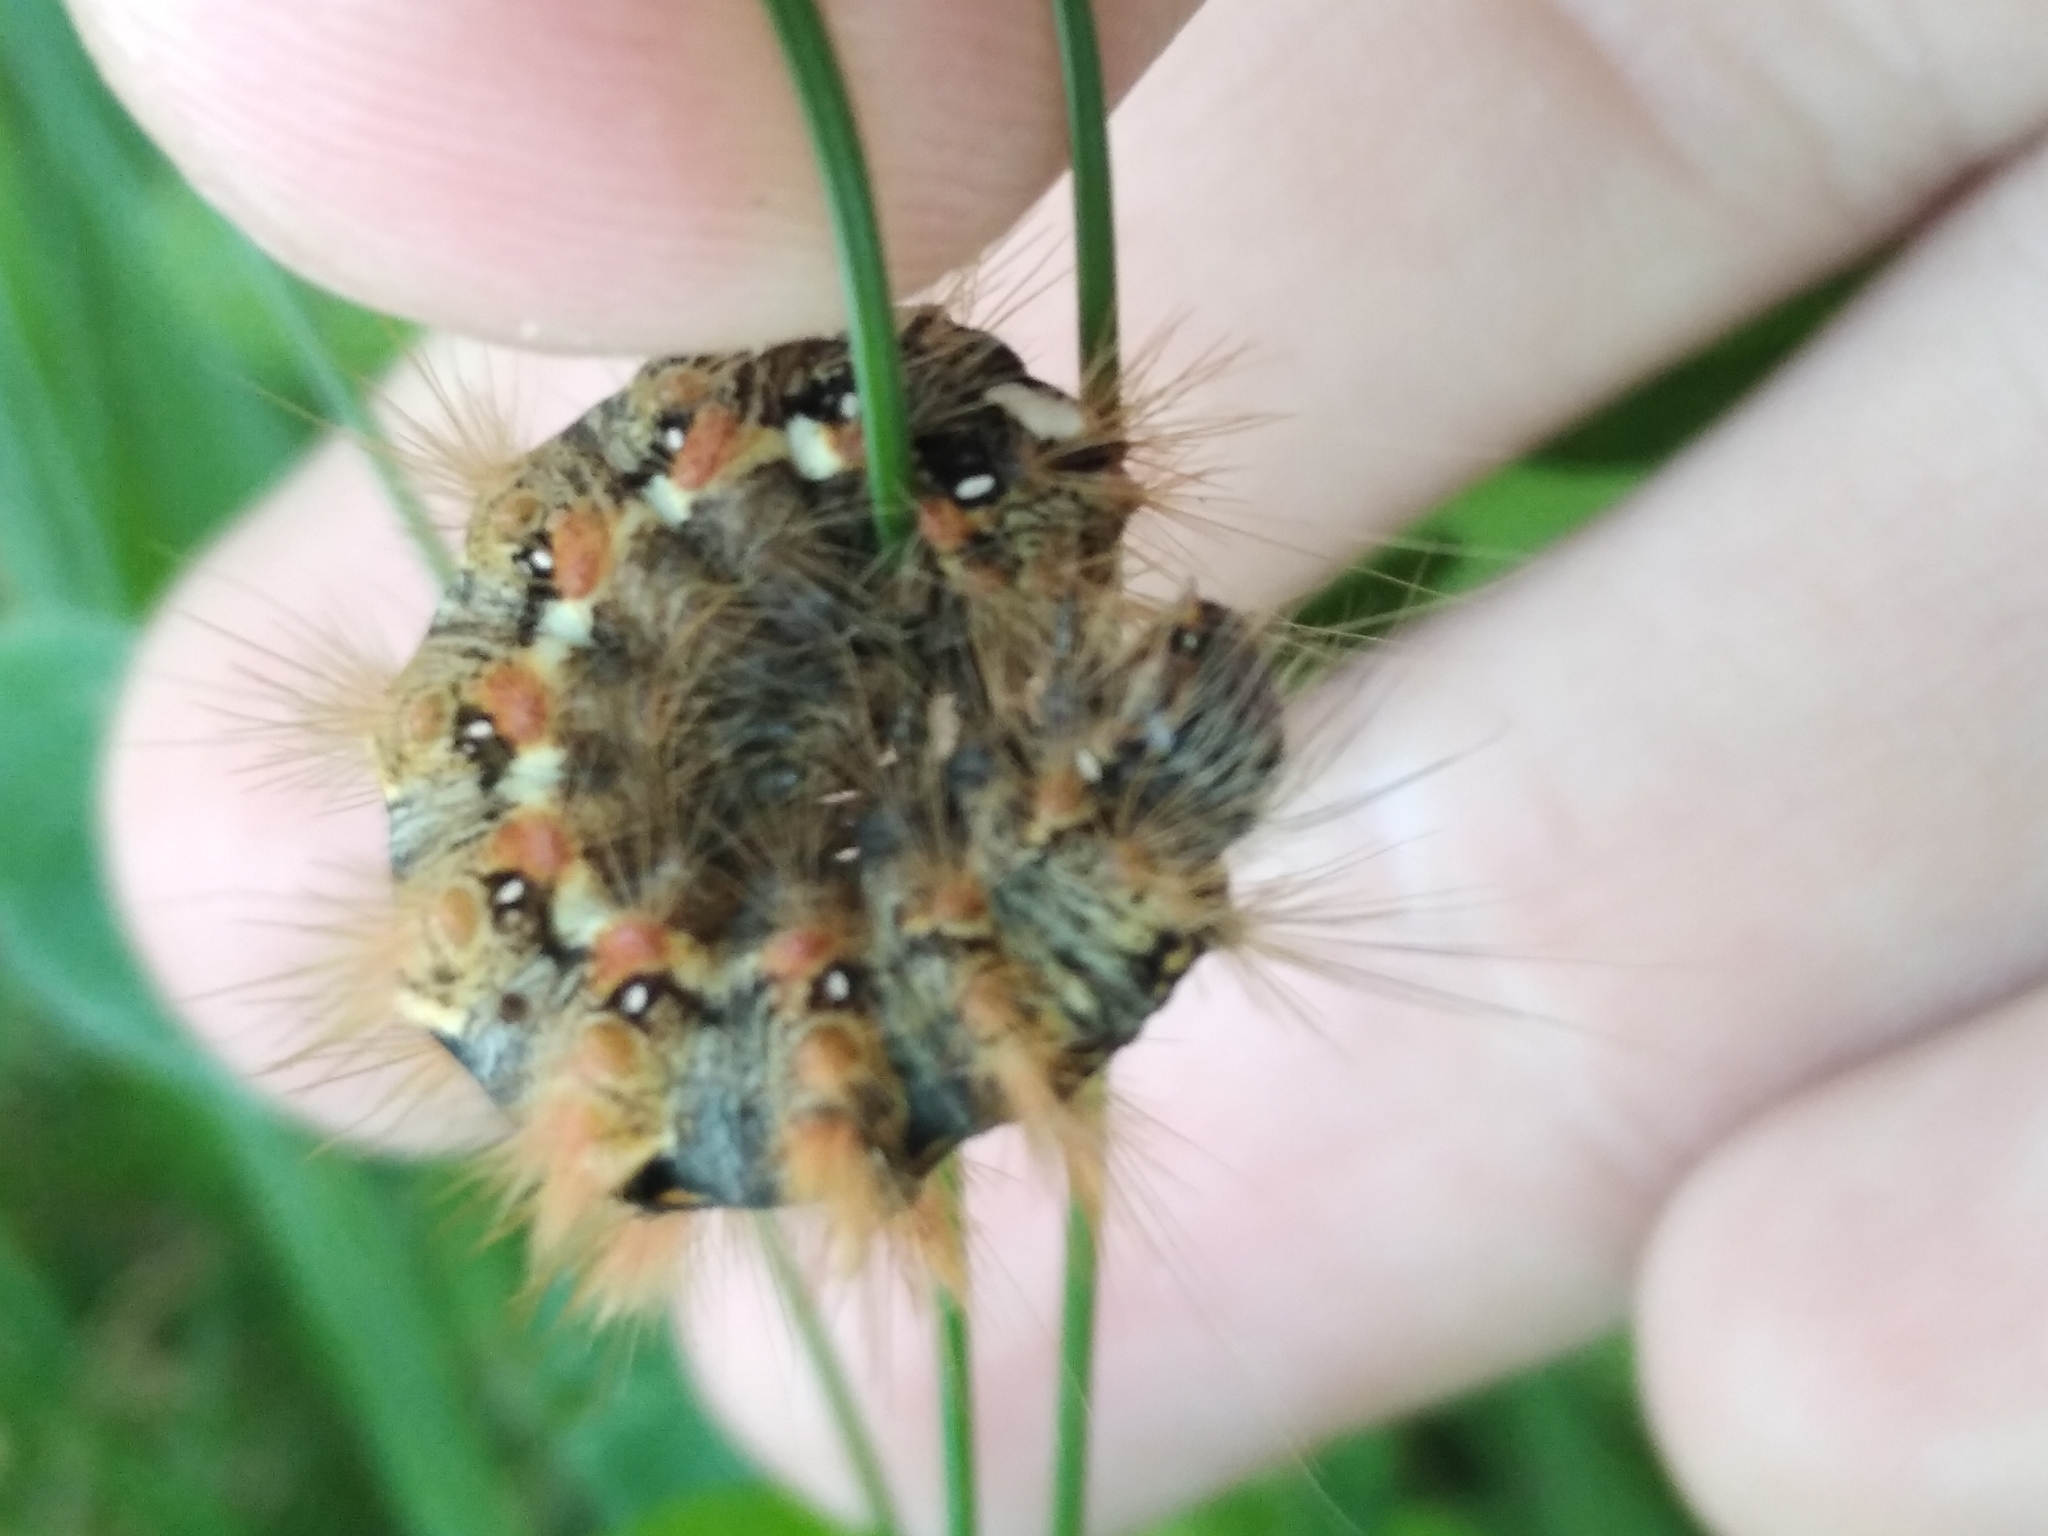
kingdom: Animalia
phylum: Arthropoda
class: Insecta
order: Lepidoptera
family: Noctuidae
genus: Acronicta
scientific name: Acronicta rumicis
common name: Knot grass
